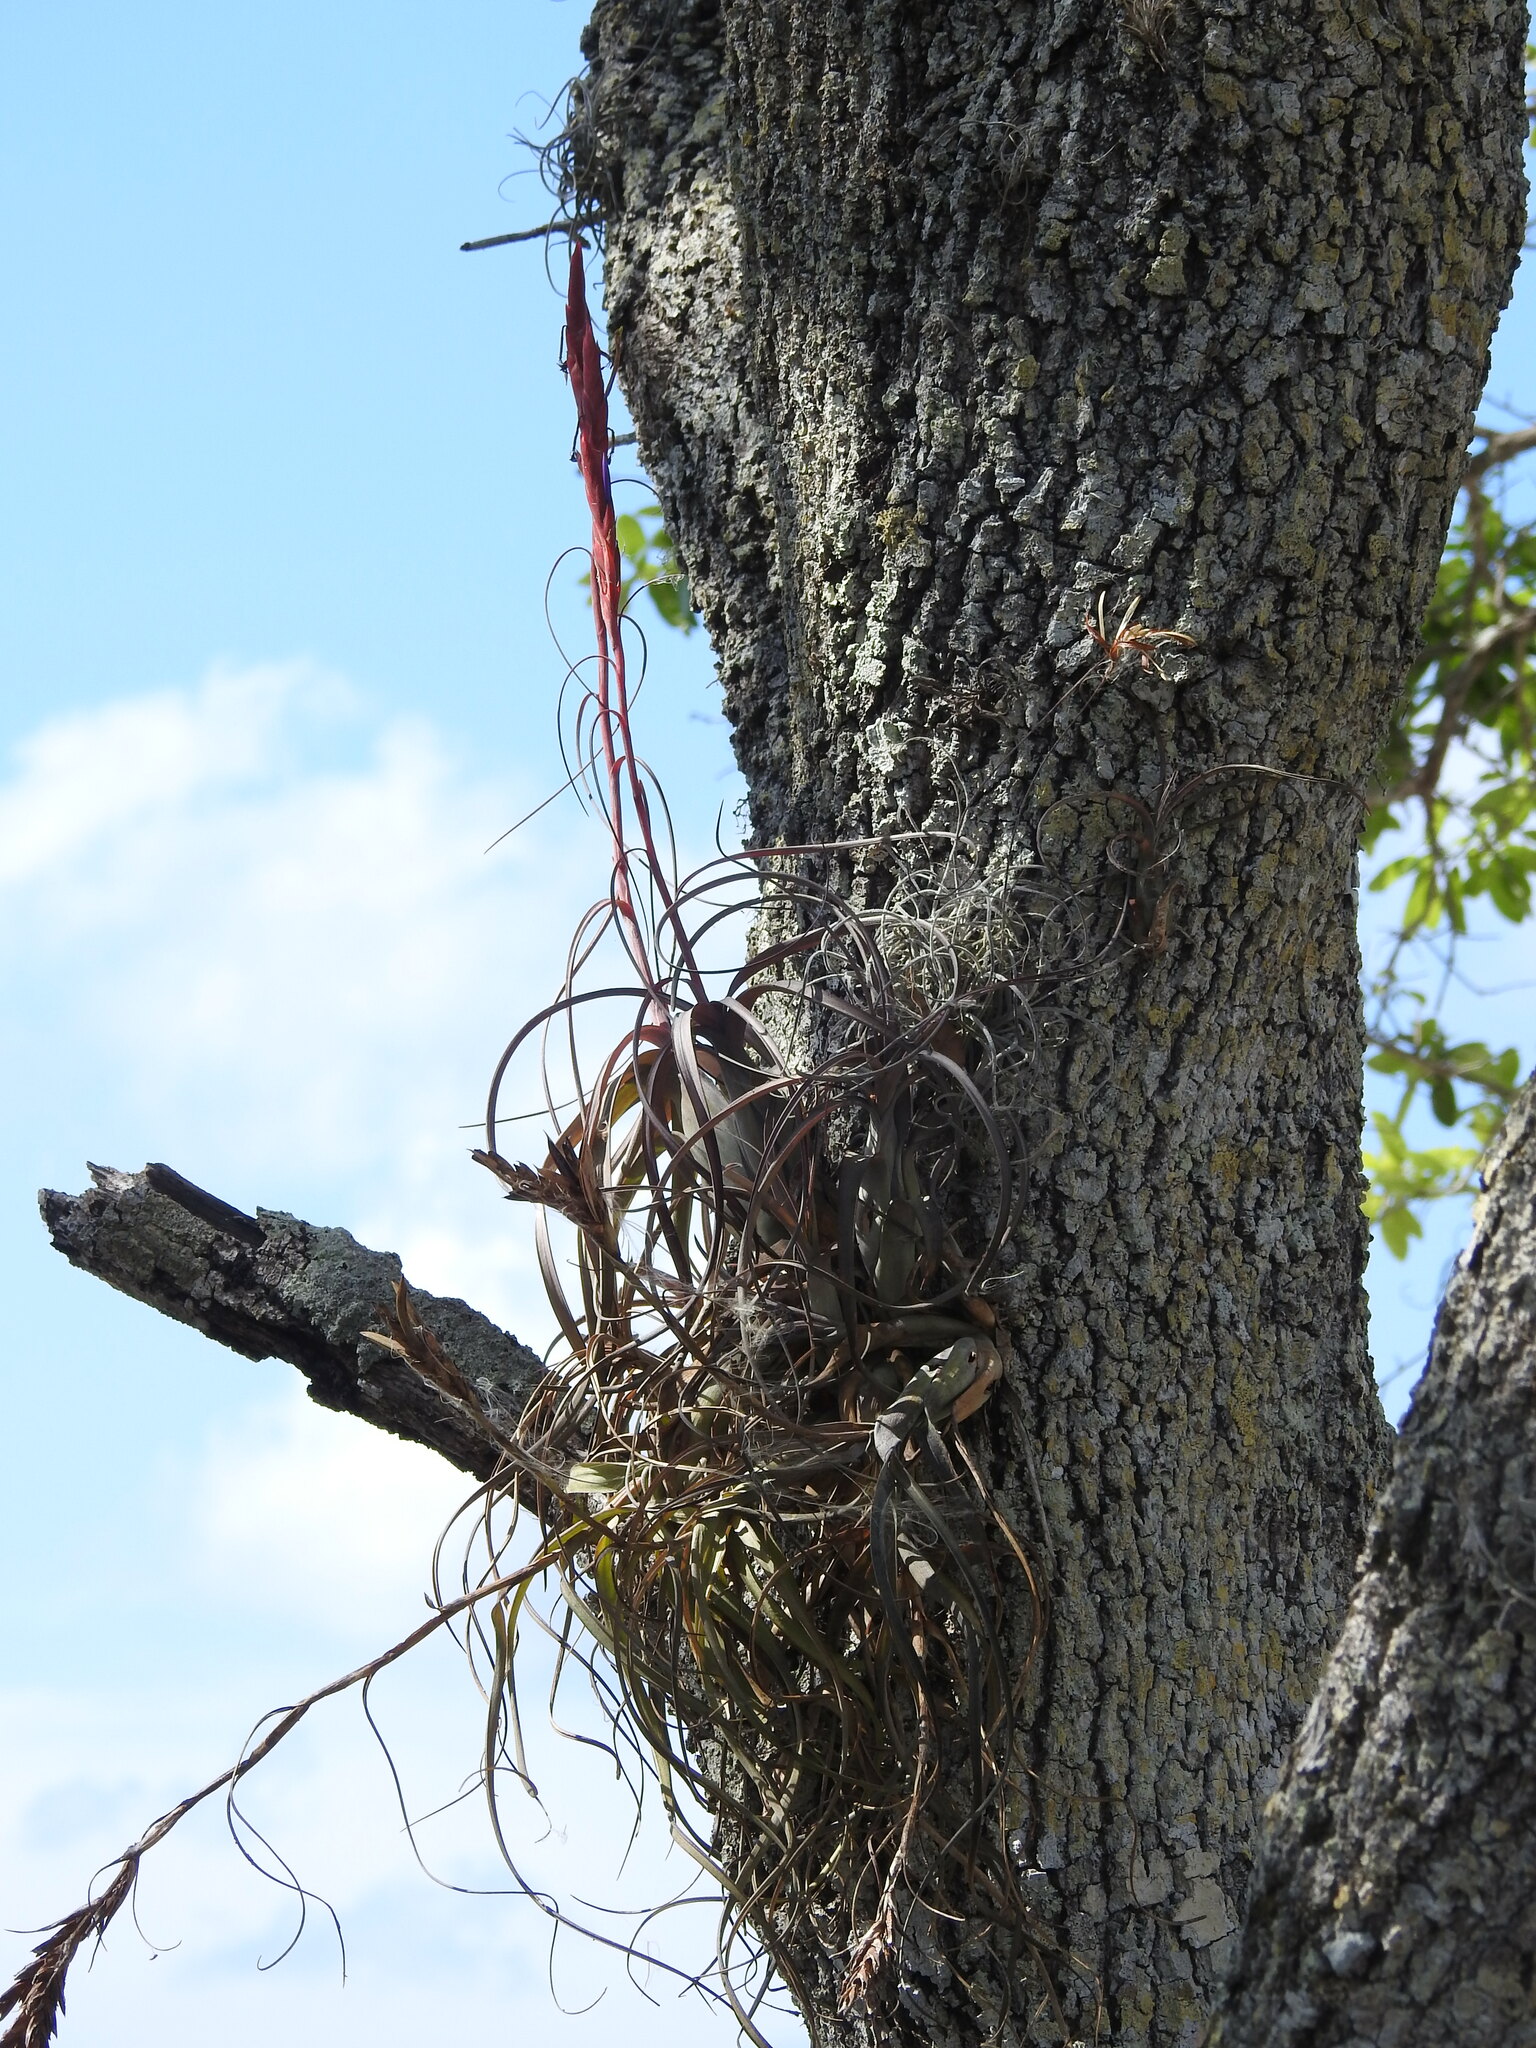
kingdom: Plantae
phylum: Tracheophyta
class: Liliopsida
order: Poales
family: Bromeliaceae
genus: Tillandsia
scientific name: Tillandsia balbisiana
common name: Northern needleleaf
